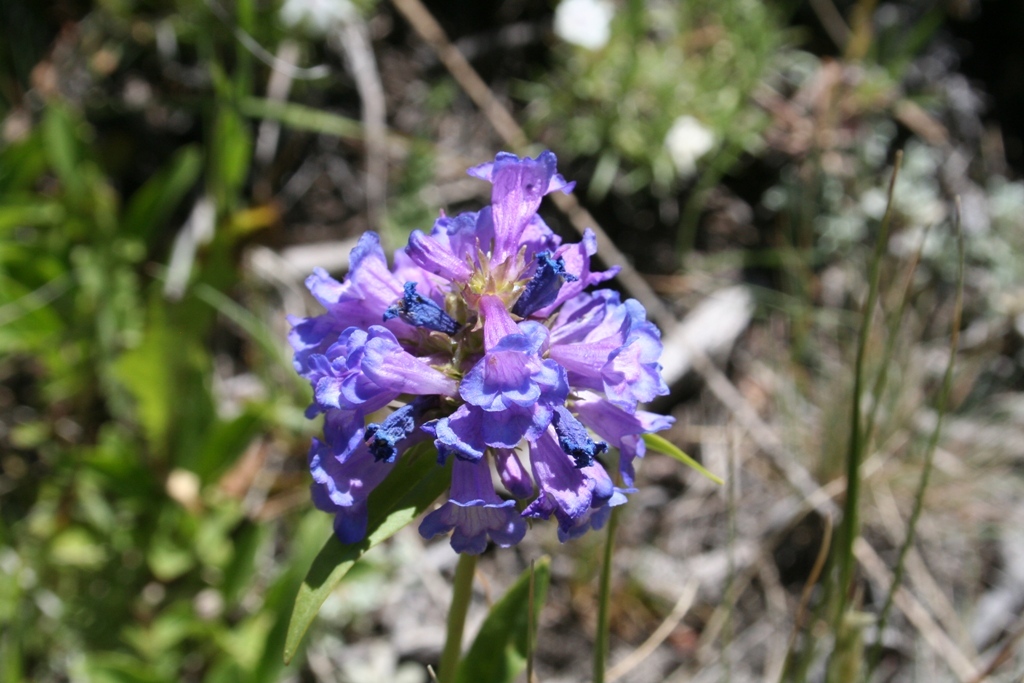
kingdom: Plantae
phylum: Tracheophyta
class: Magnoliopsida
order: Lamiales
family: Plantaginaceae
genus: Penstemon
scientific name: Penstemon rydbergii
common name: Rydberg's beardtongue
